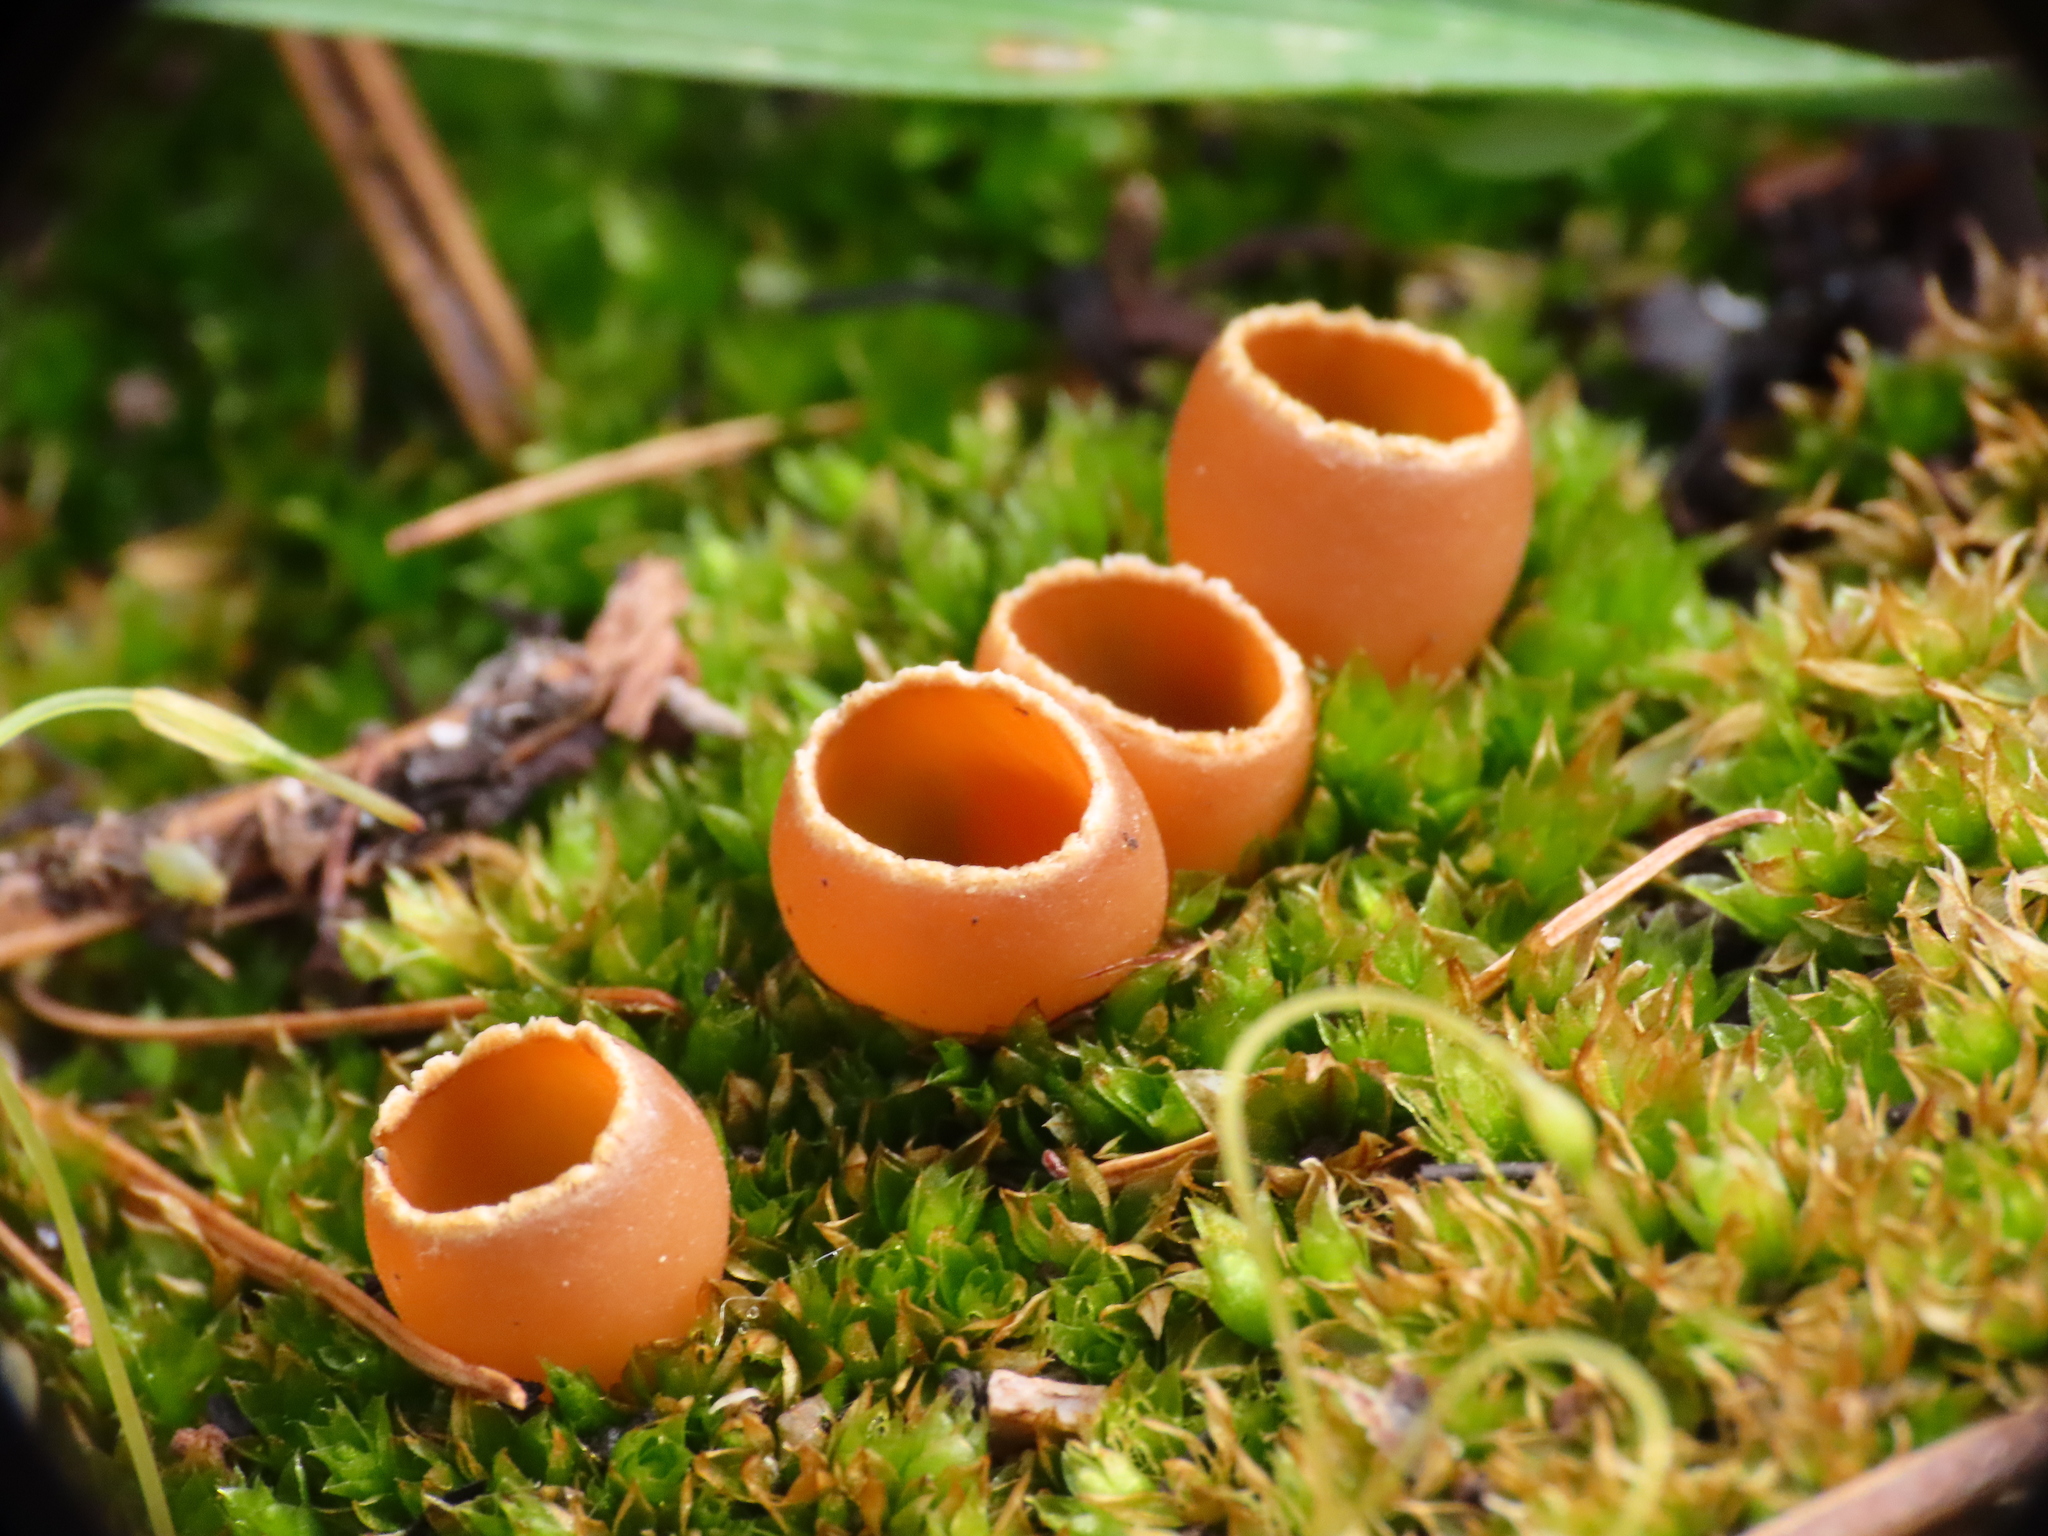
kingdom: Fungi
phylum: Ascomycota
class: Pezizomycetes
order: Pezizales
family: Pyronemataceae
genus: Geopyxis
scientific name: Geopyxis carbonaria
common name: Stalked bonfire cup
